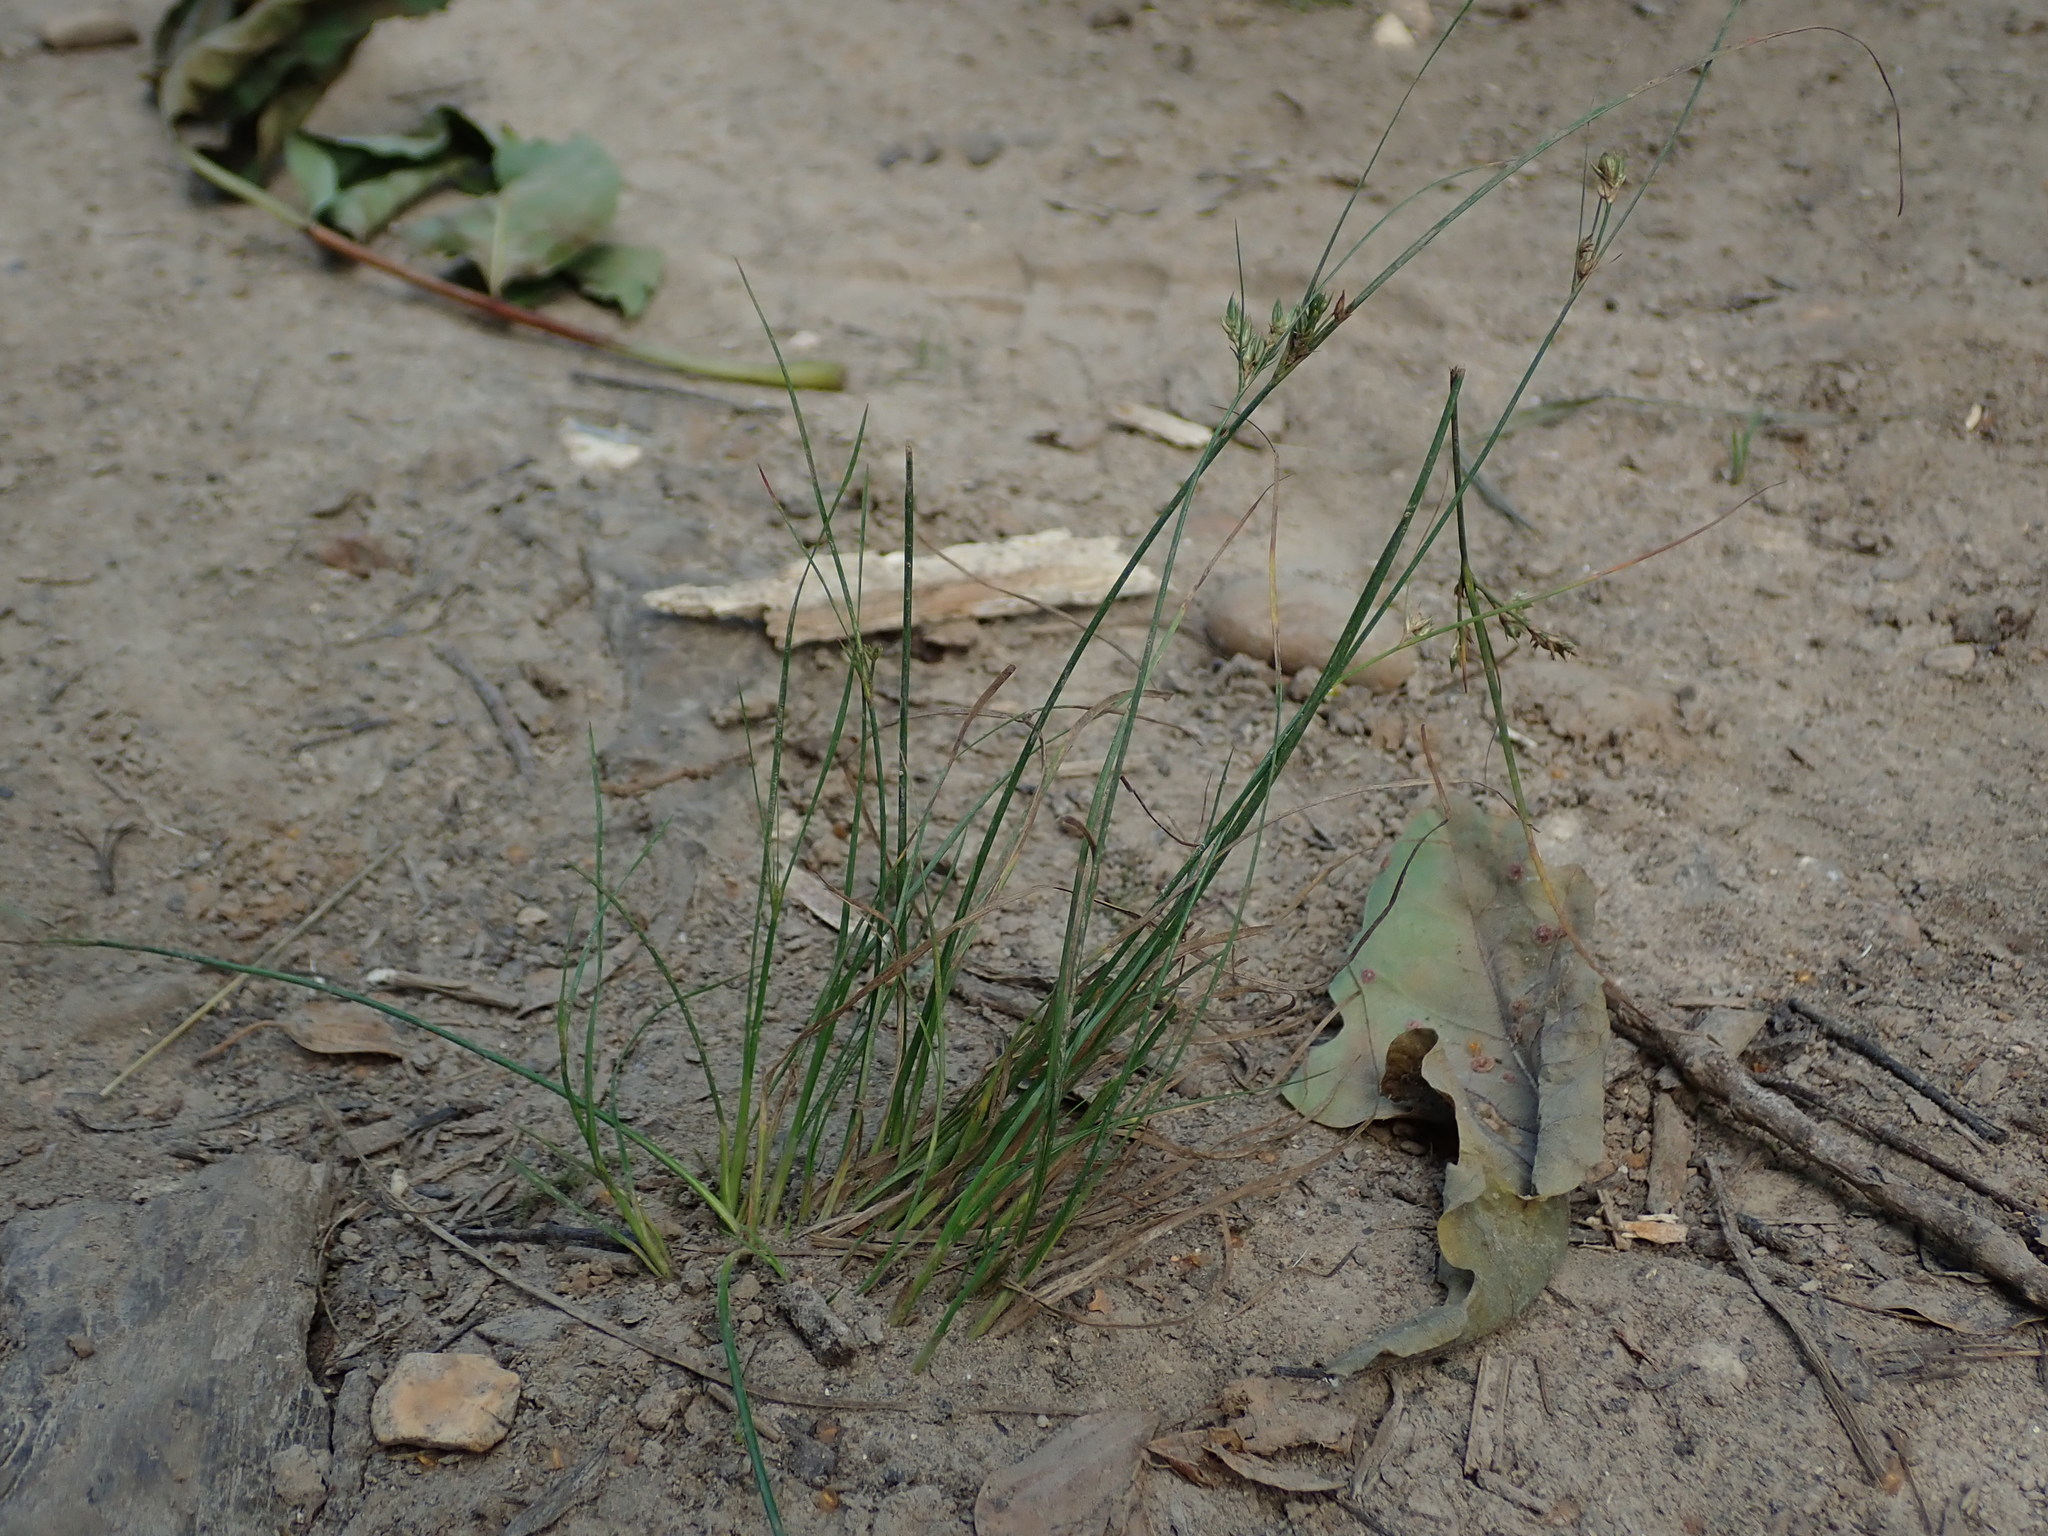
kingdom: Plantae
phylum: Tracheophyta
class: Liliopsida
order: Poales
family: Juncaceae
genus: Juncus
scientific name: Juncus tenuis
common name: Slender rush
